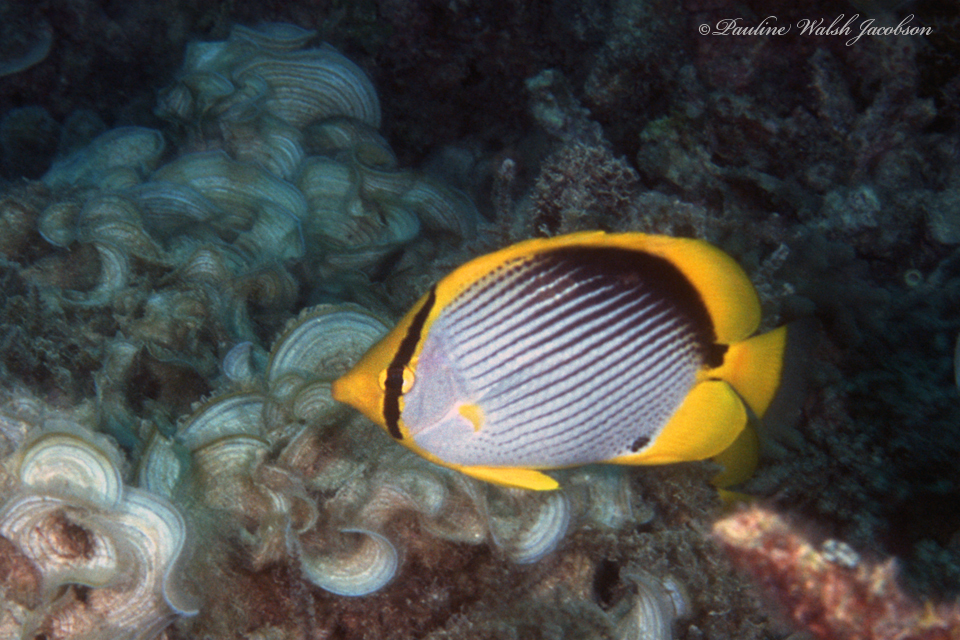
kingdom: Animalia
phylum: Chordata
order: Perciformes
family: Chaetodontidae
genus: Chaetodon
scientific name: Chaetodon melannotus
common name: Blackback butterflyfish
